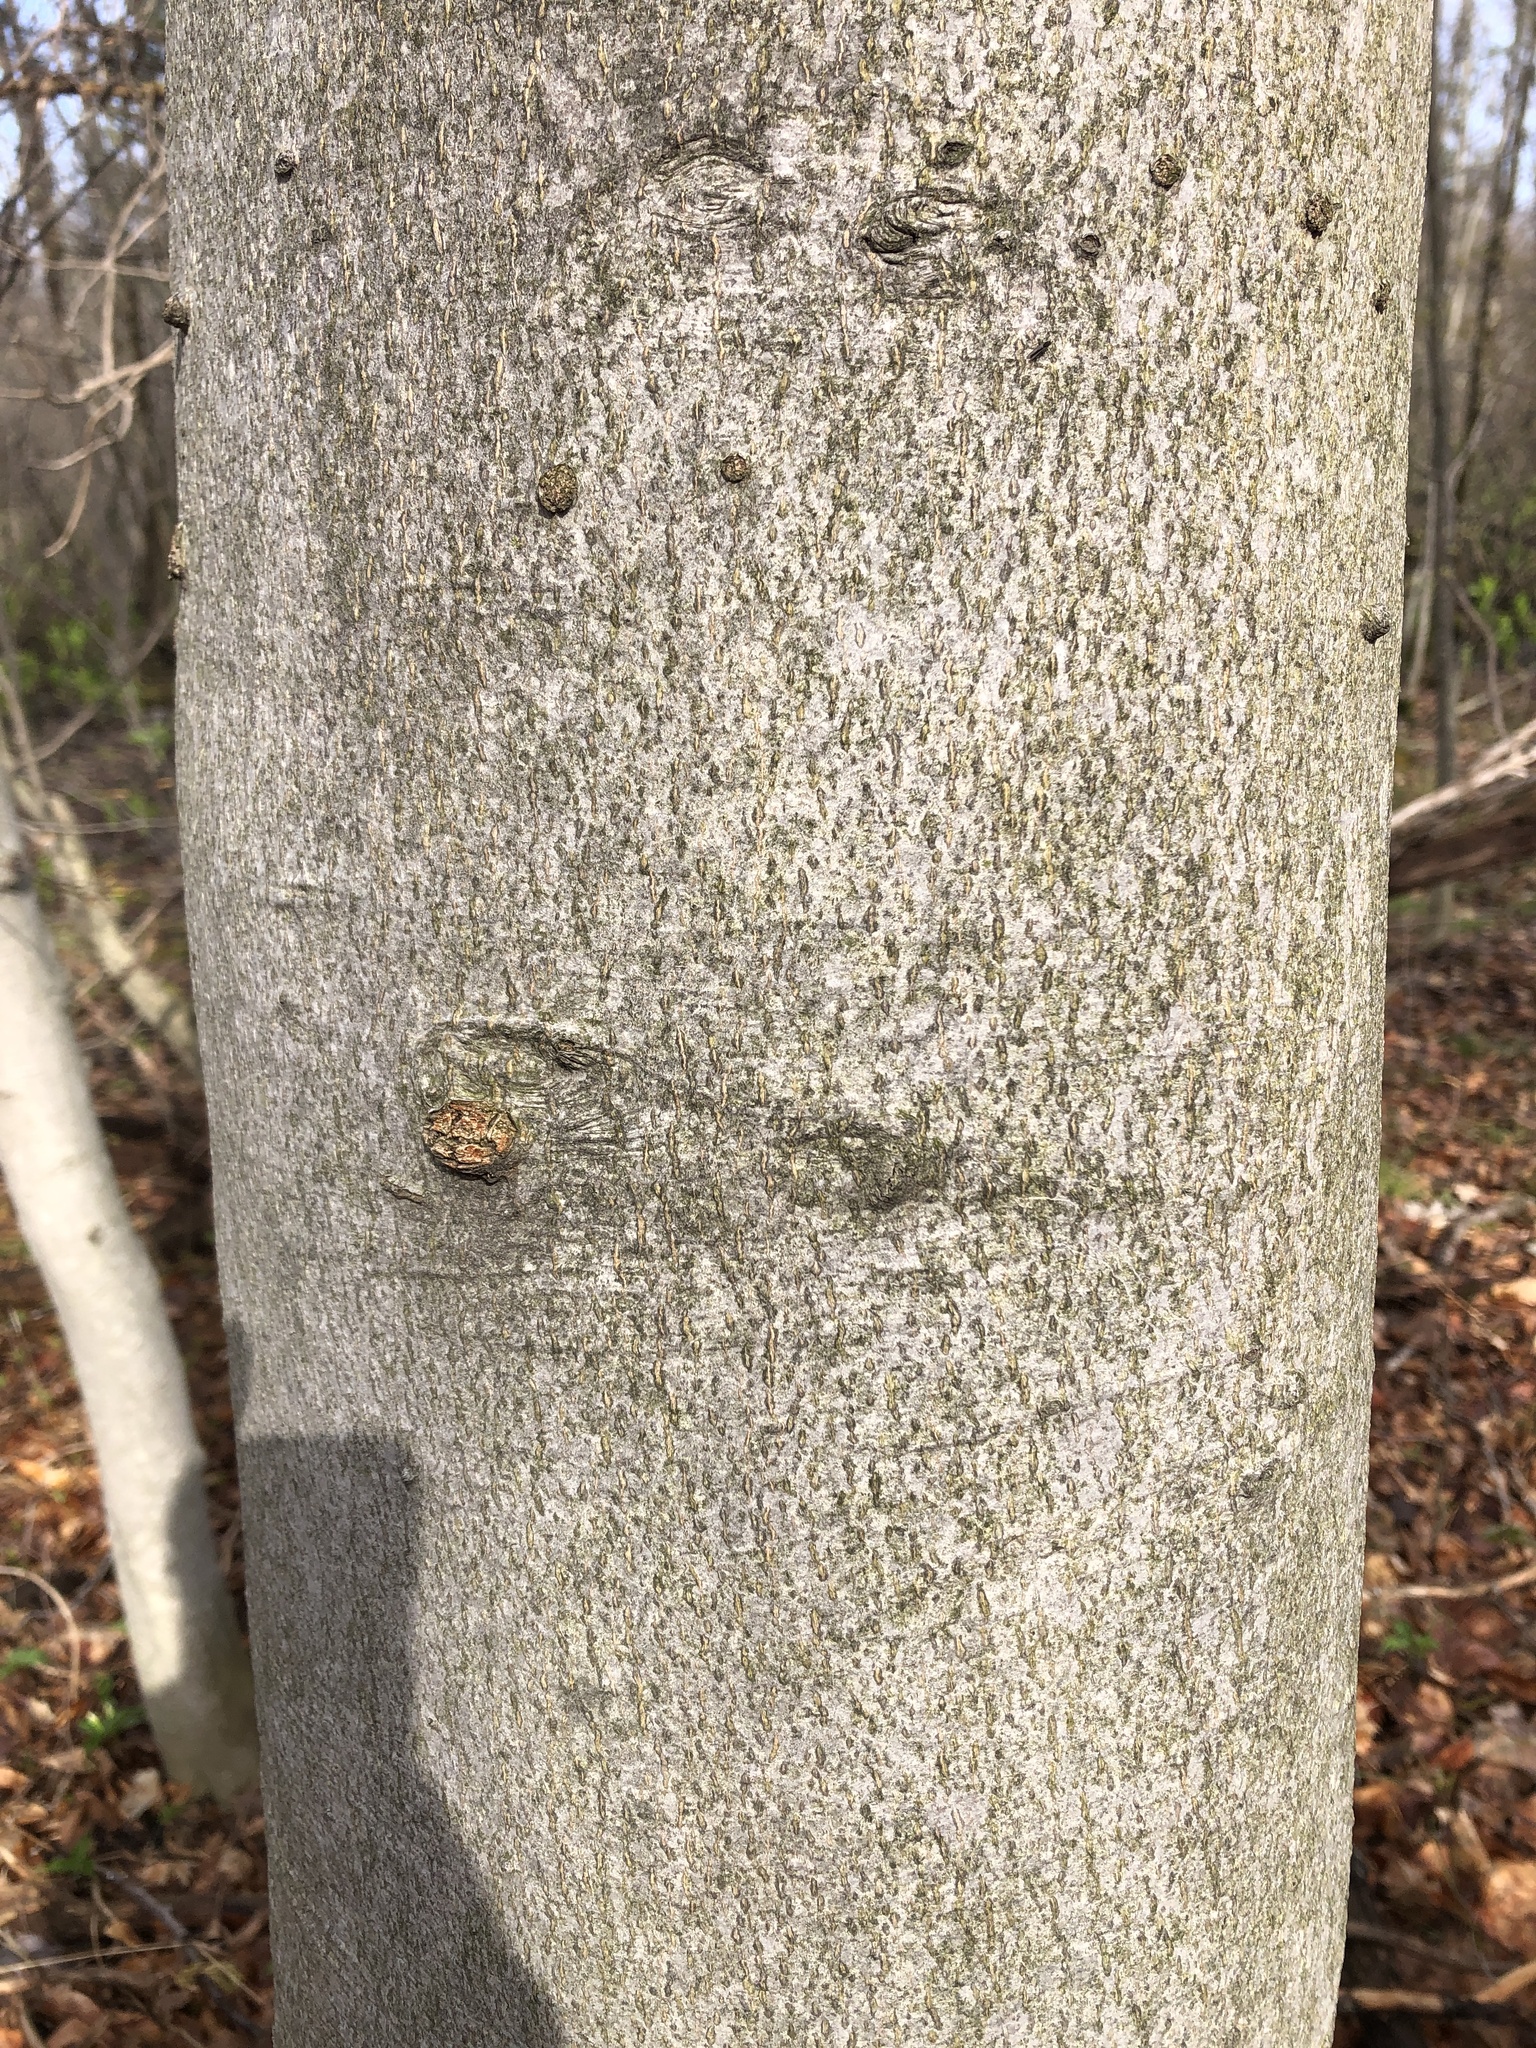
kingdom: Plantae
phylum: Tracheophyta
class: Magnoliopsida
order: Fagales
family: Fagaceae
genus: Fagus
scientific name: Fagus grandifolia
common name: American beech
